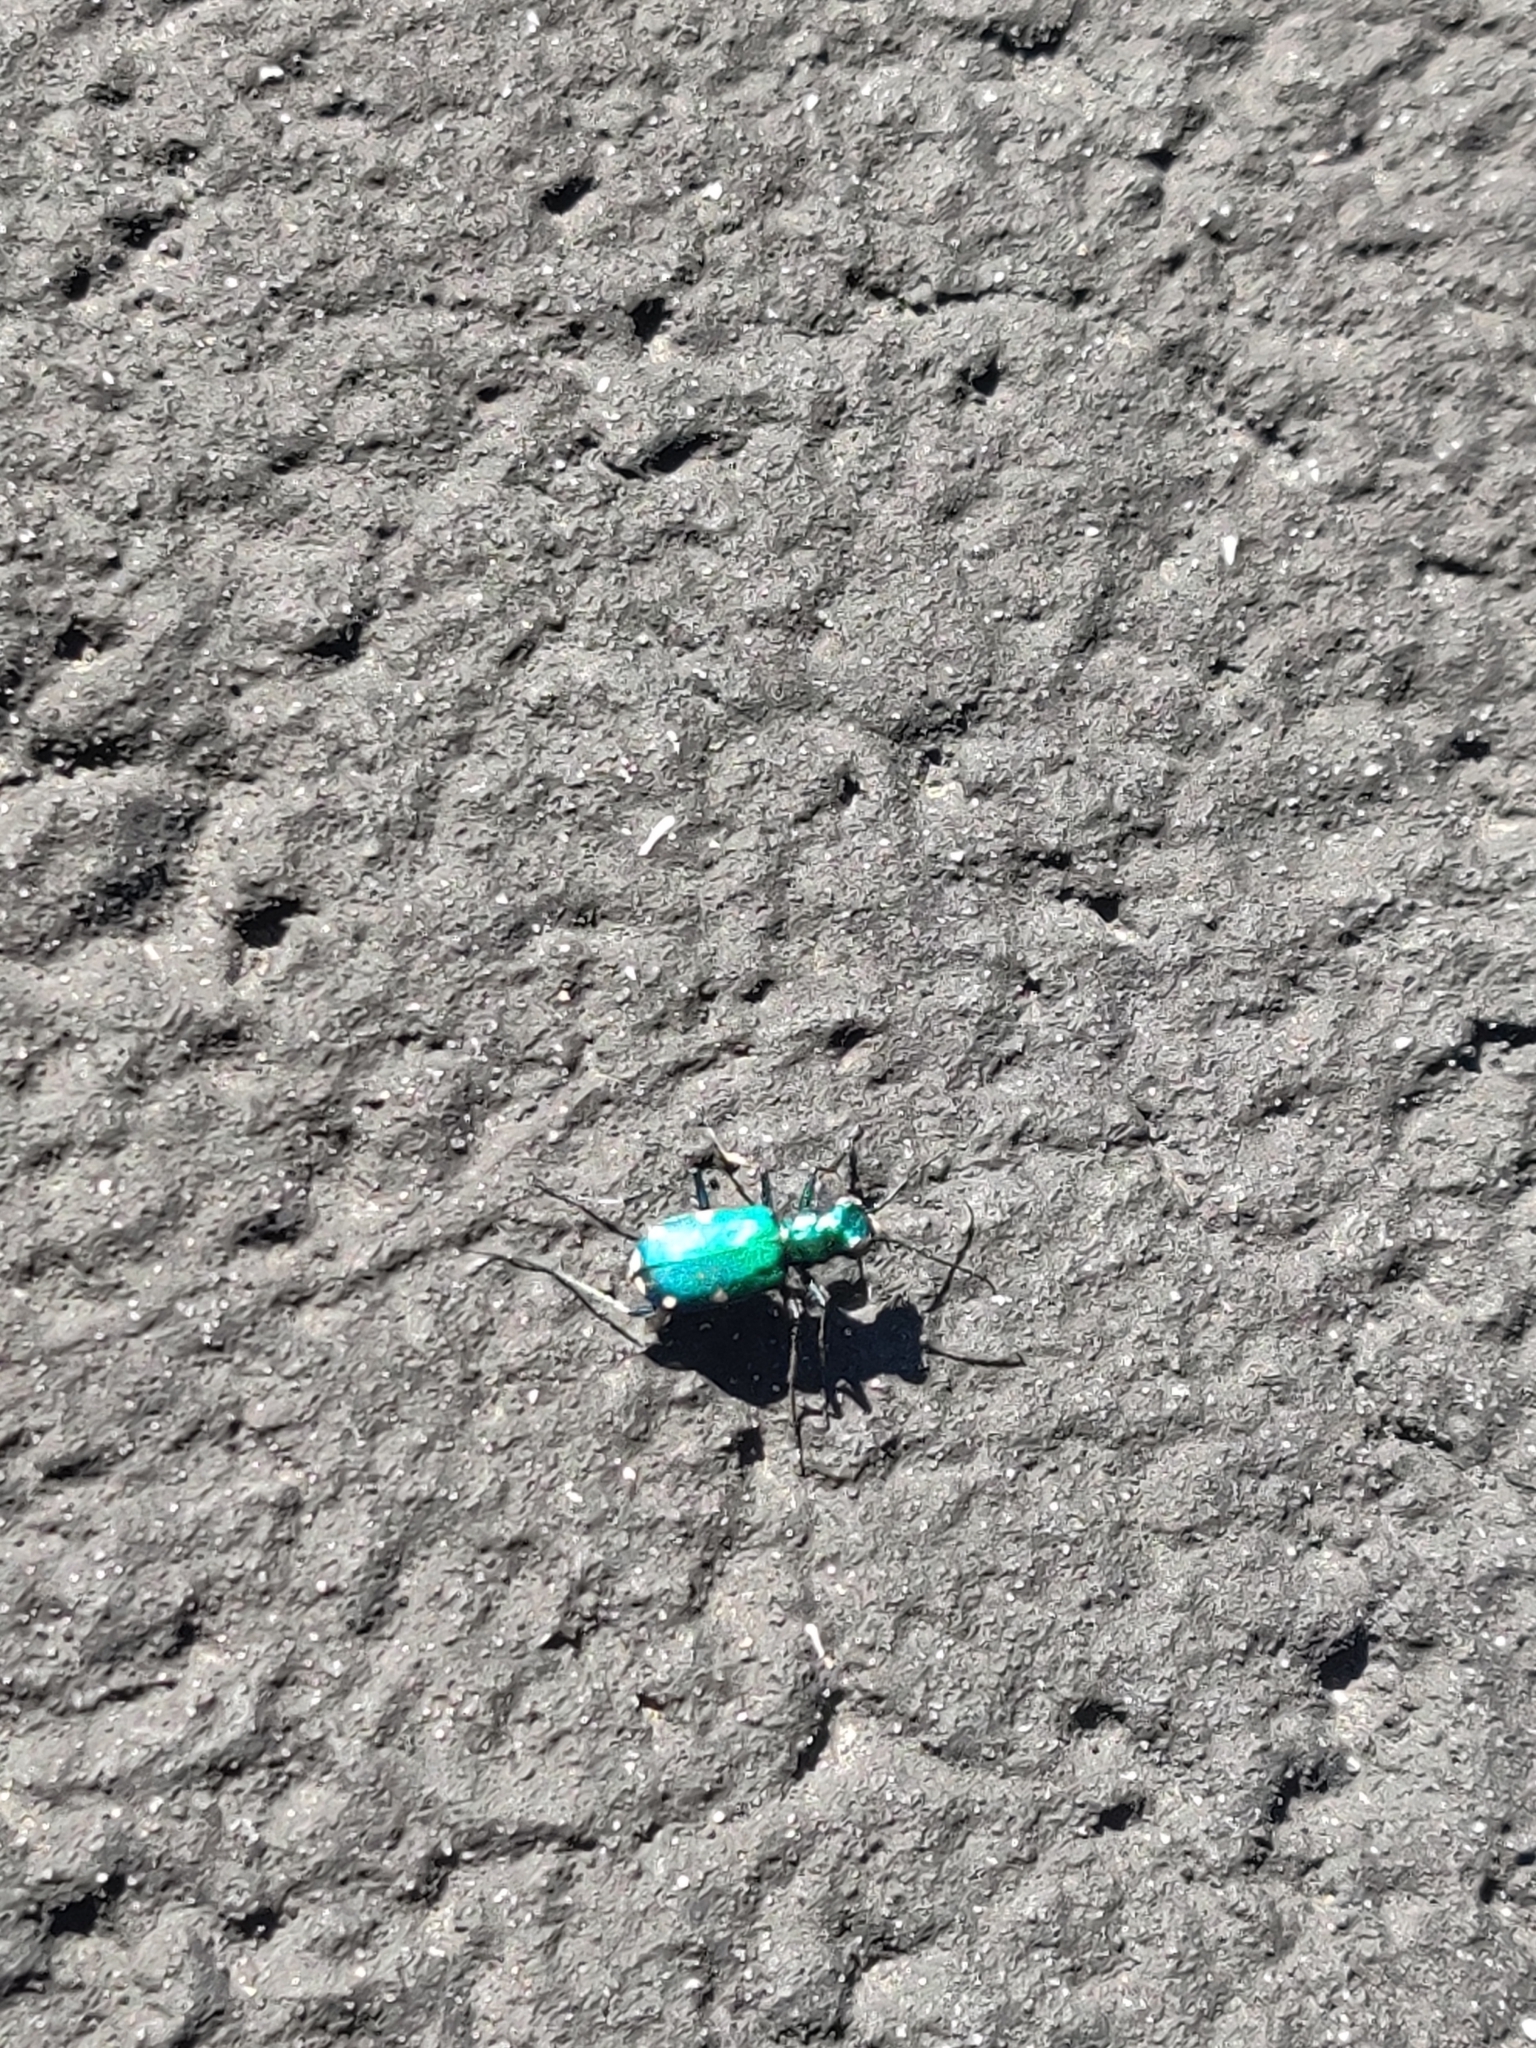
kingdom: Animalia
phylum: Arthropoda
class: Insecta
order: Coleoptera
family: Carabidae
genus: Cicindela
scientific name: Cicindela sexguttata
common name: Six-spotted tiger beetle
